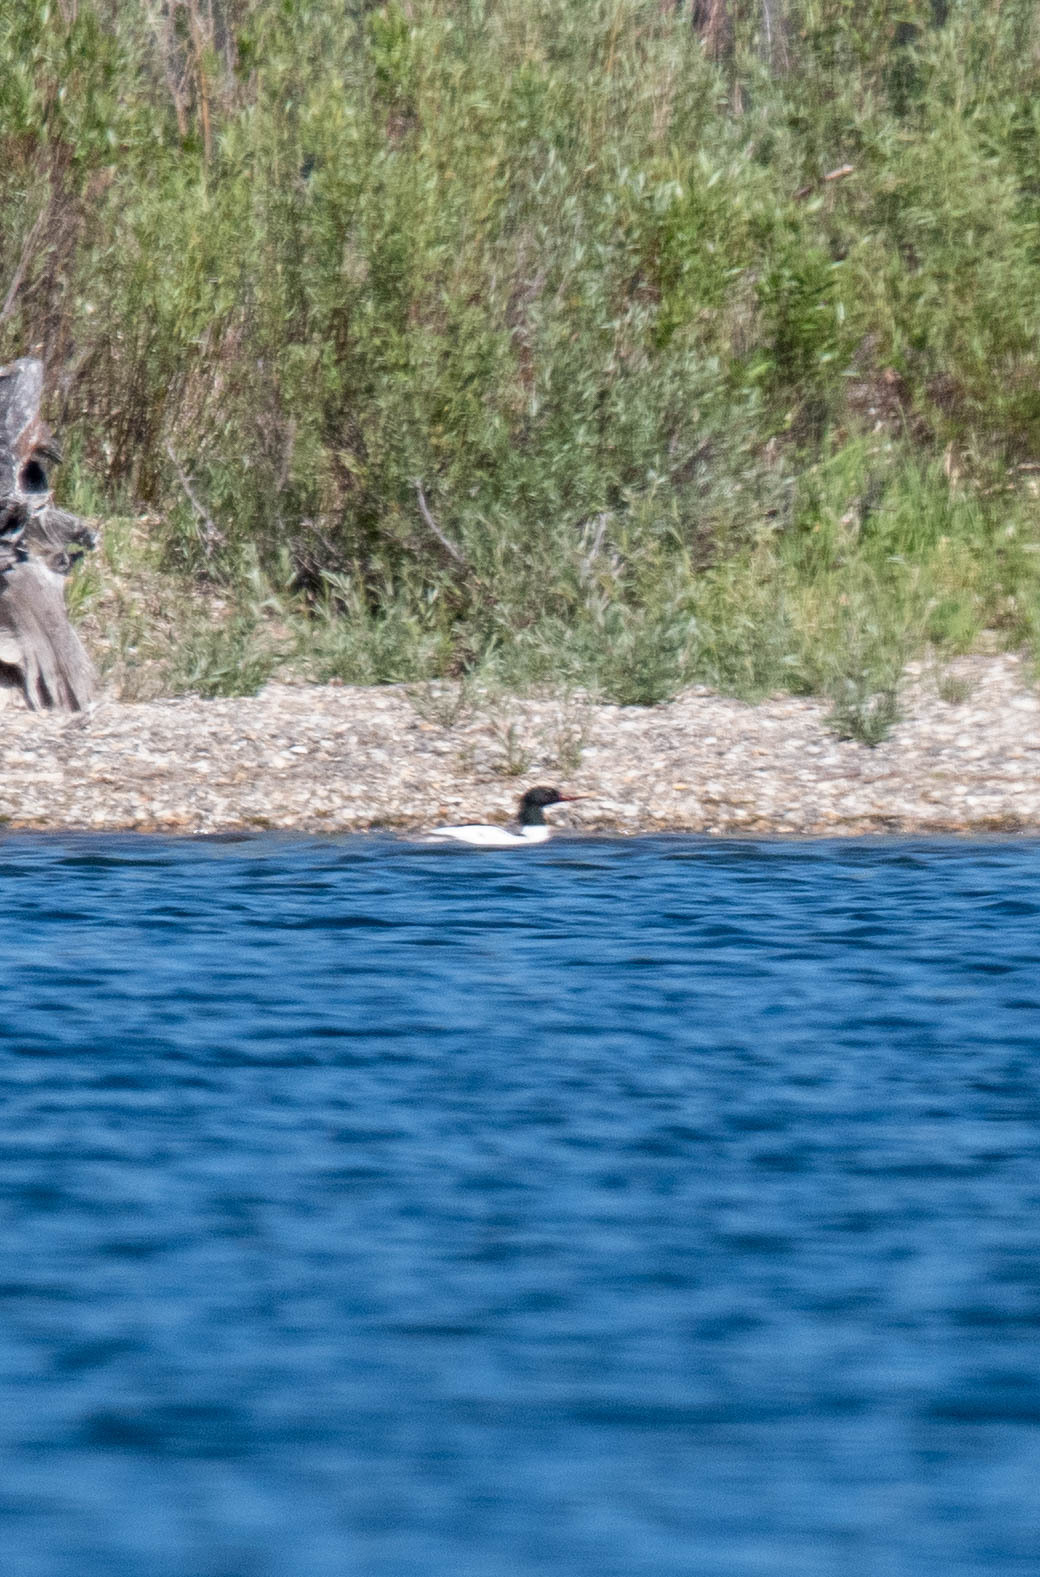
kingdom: Animalia
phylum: Chordata
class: Aves
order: Anseriformes
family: Anatidae
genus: Mergus
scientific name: Mergus merganser
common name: Common merganser
